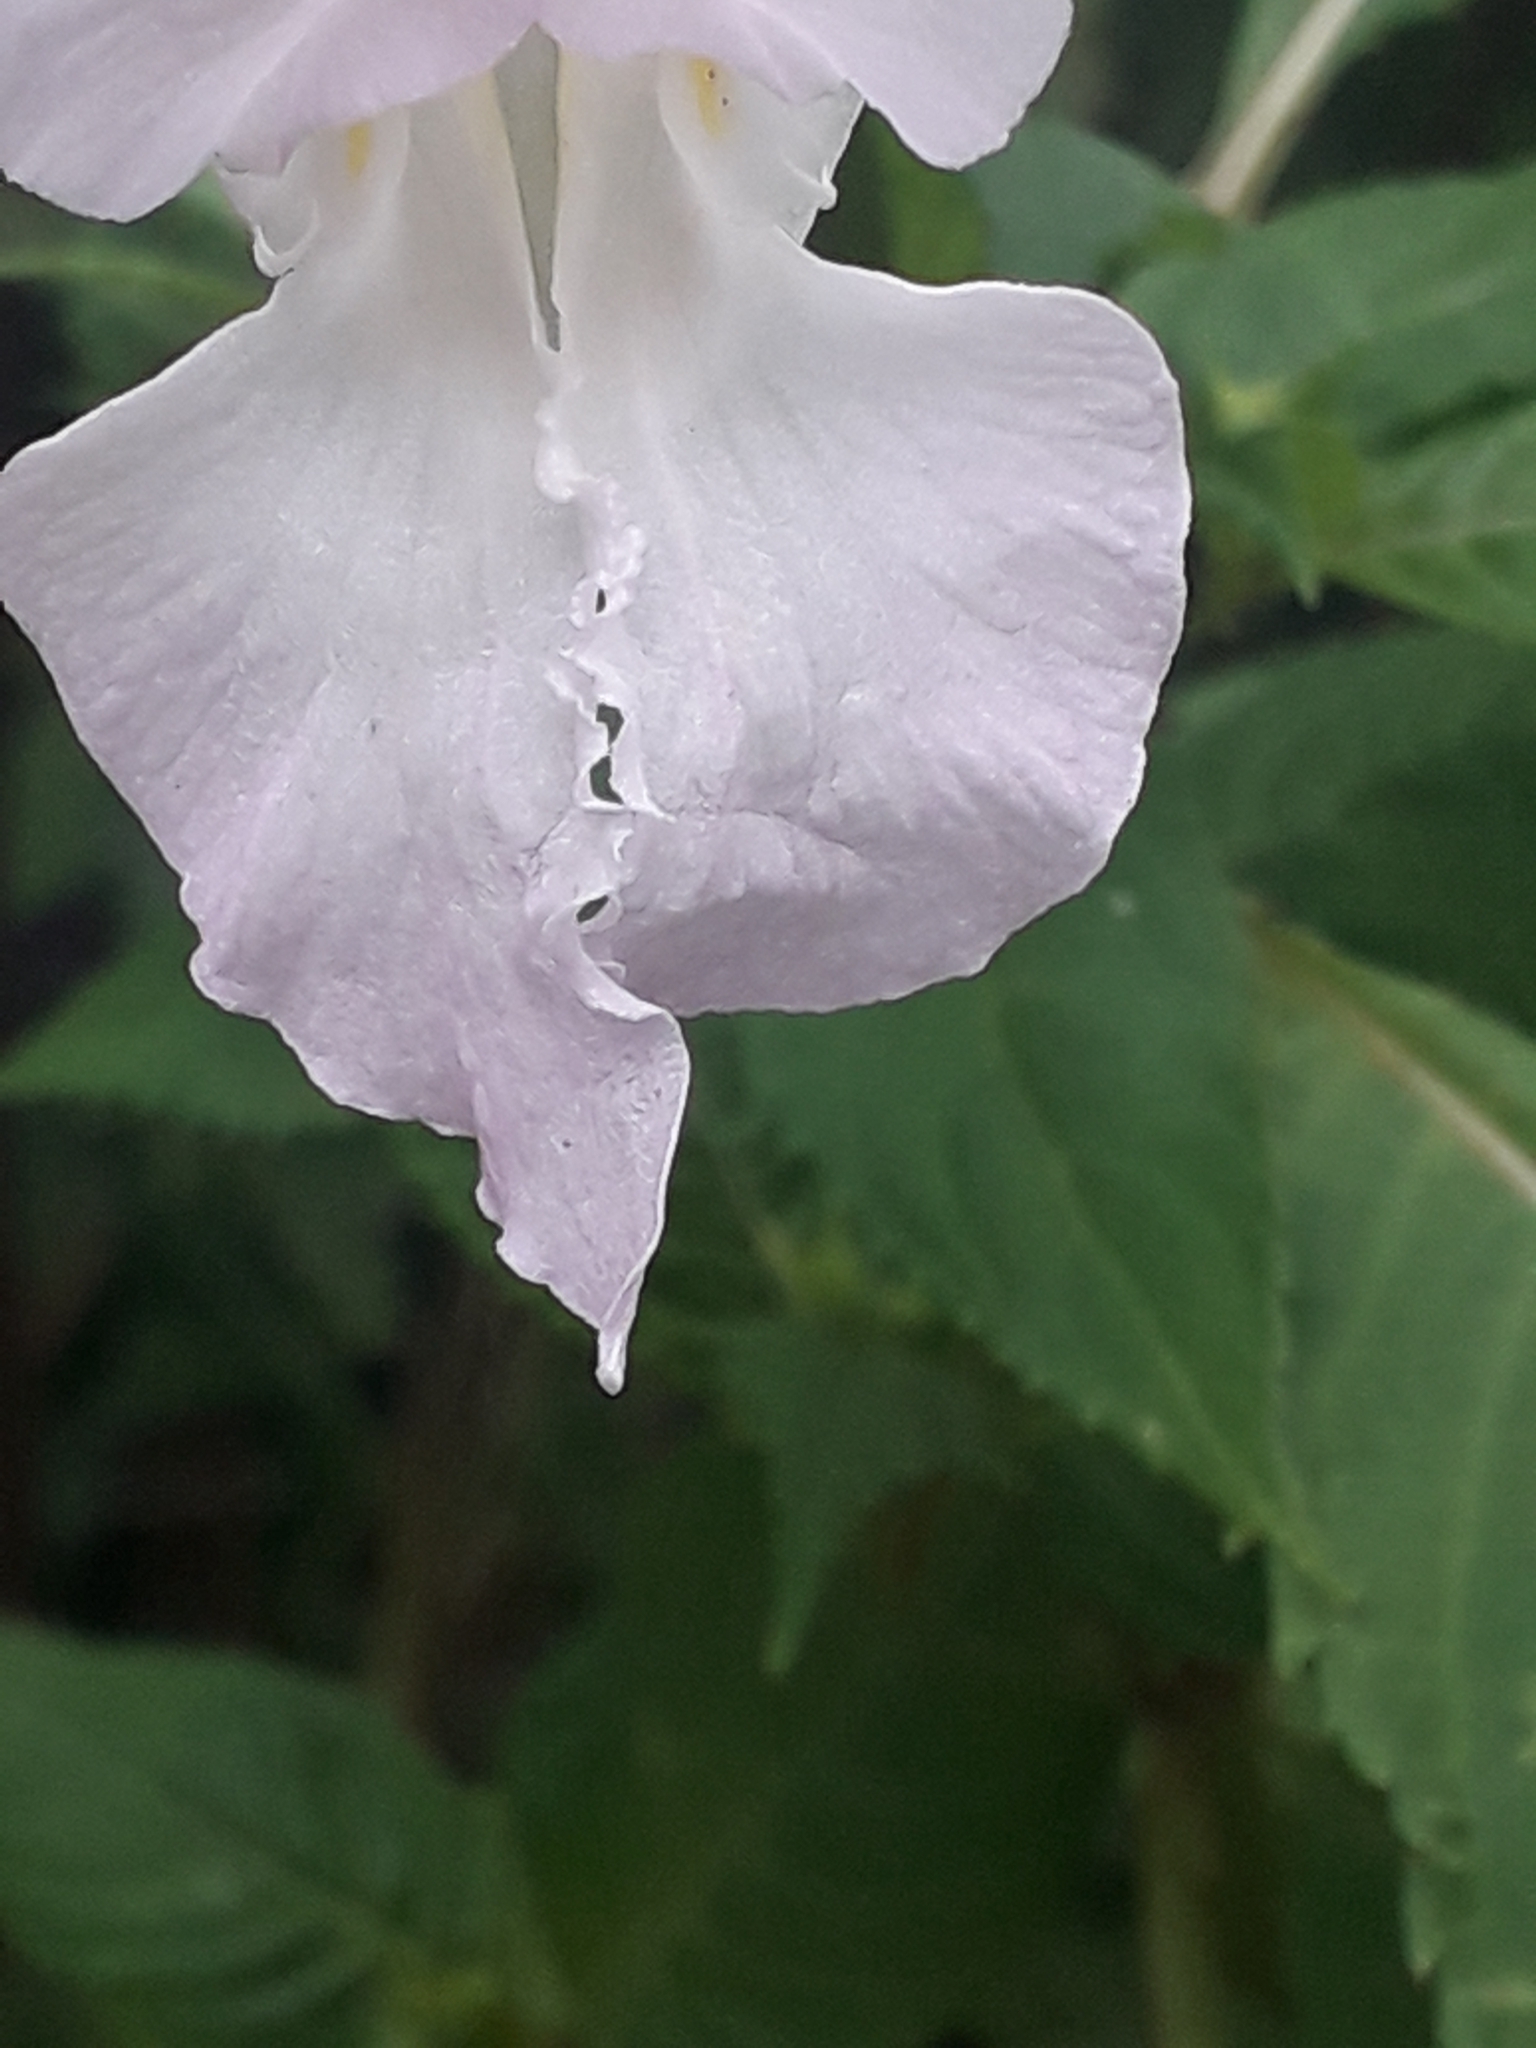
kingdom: Plantae
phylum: Tracheophyta
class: Magnoliopsida
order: Ericales
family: Balsaminaceae
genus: Impatiens
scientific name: Impatiens glandulifera
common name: Himalayan balsam
